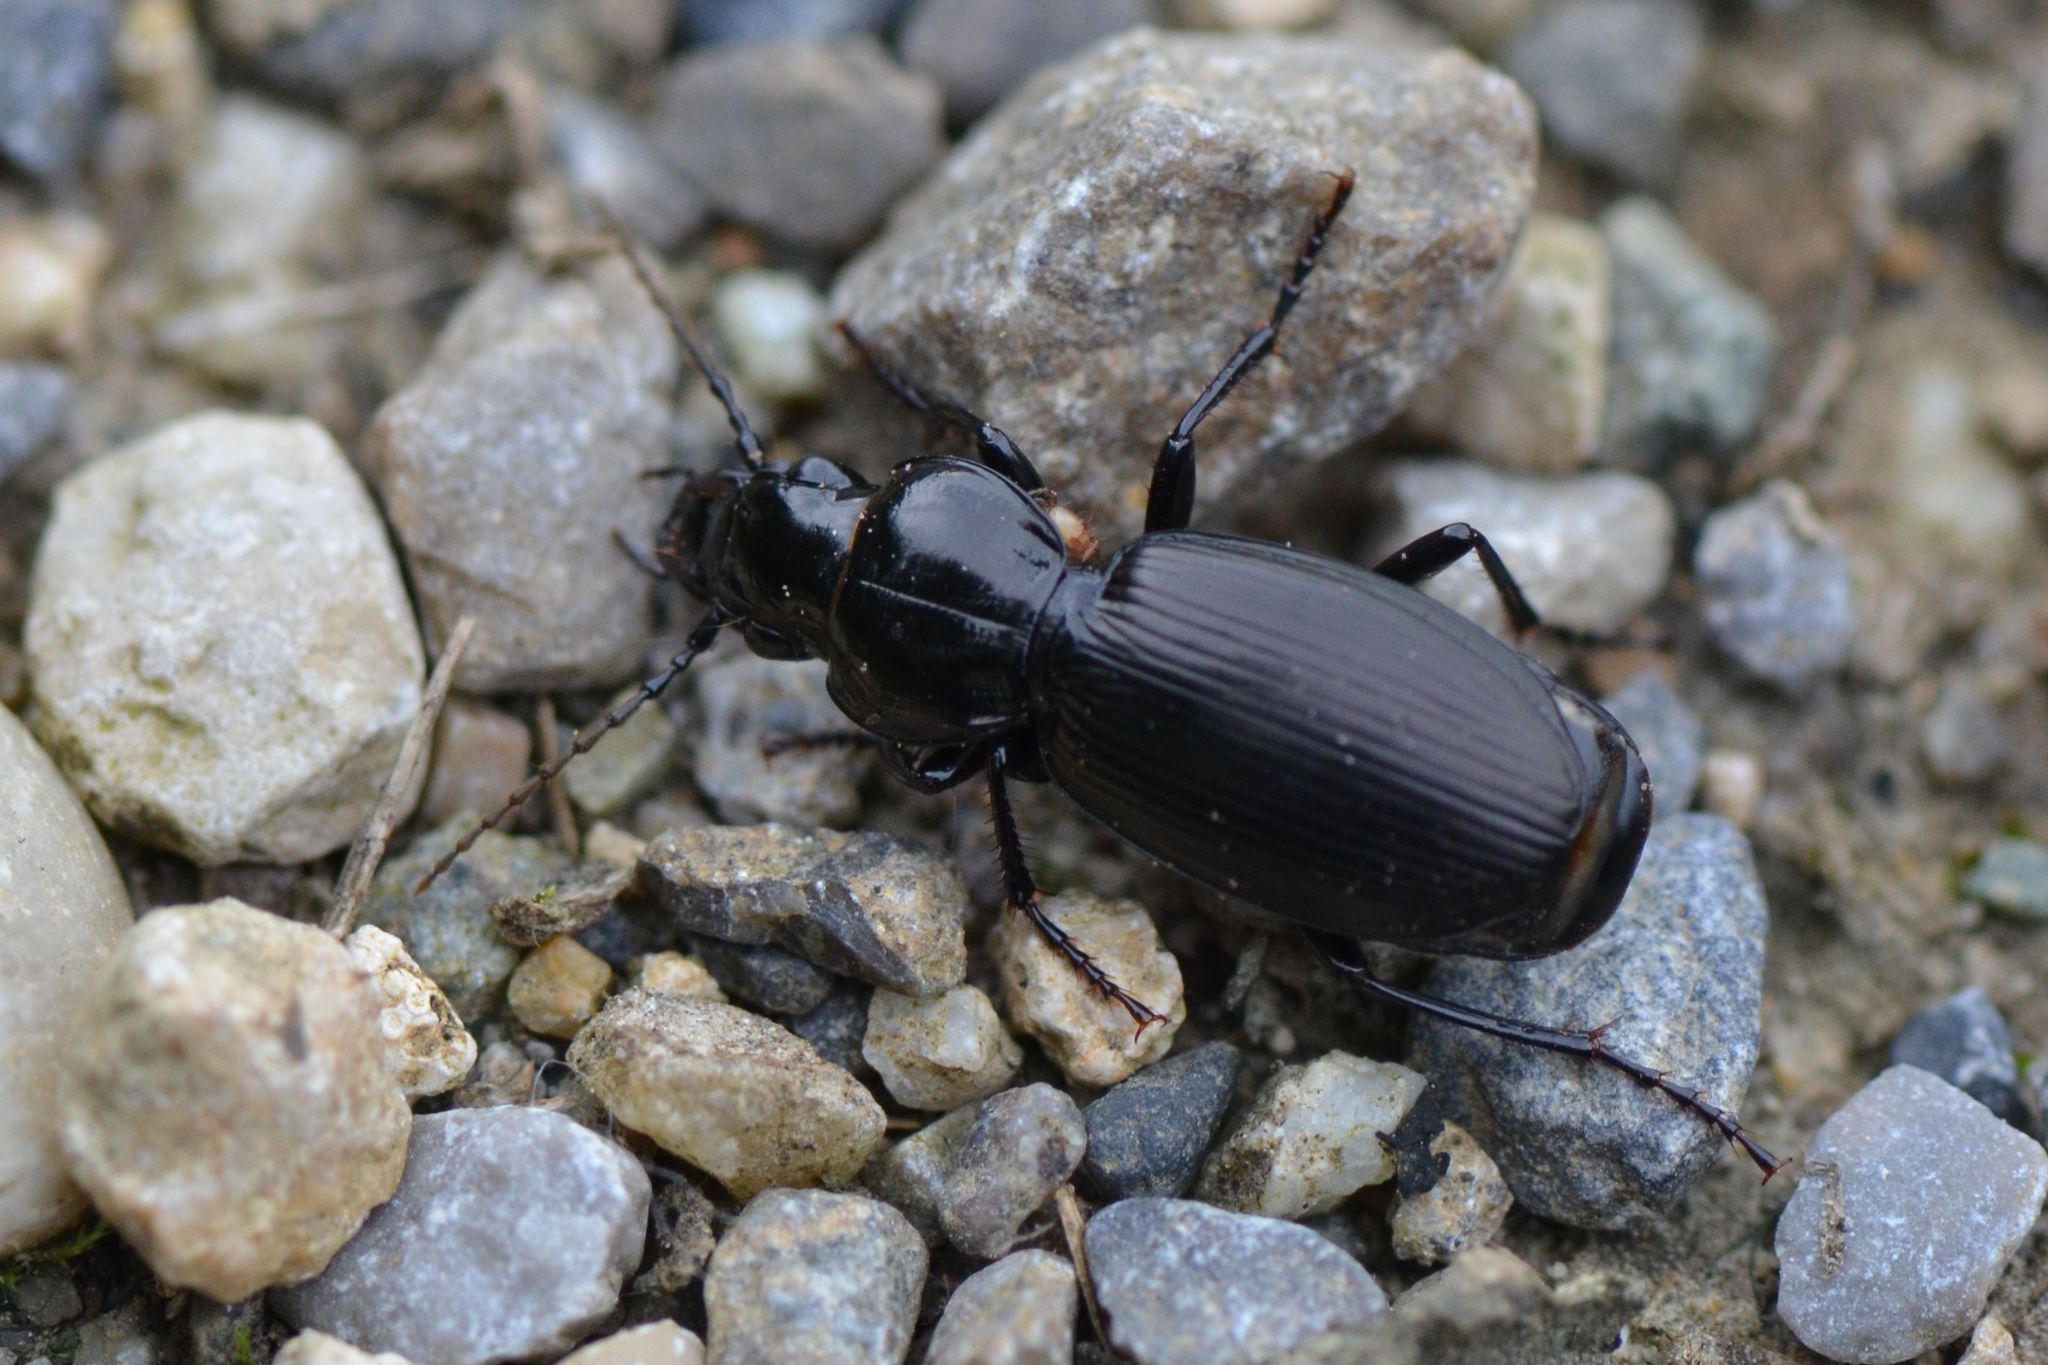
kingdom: Animalia
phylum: Arthropoda
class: Insecta
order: Coleoptera
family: Carabidae
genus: Pterostichus
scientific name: Pterostichus madidus
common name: Black clock
